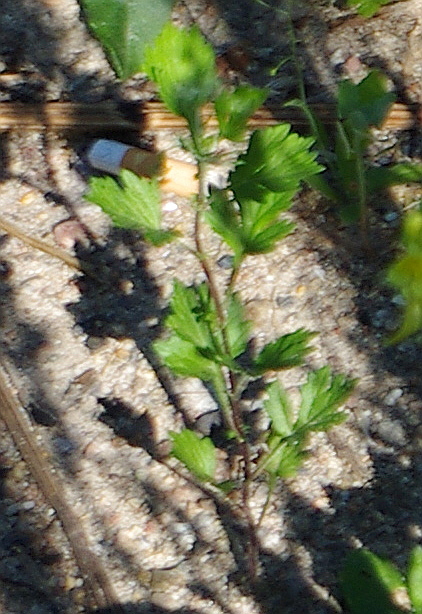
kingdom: Plantae
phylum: Tracheophyta
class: Magnoliopsida
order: Asterales
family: Asteraceae
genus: Artemisia
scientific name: Artemisia vulgaris
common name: Mugwort
